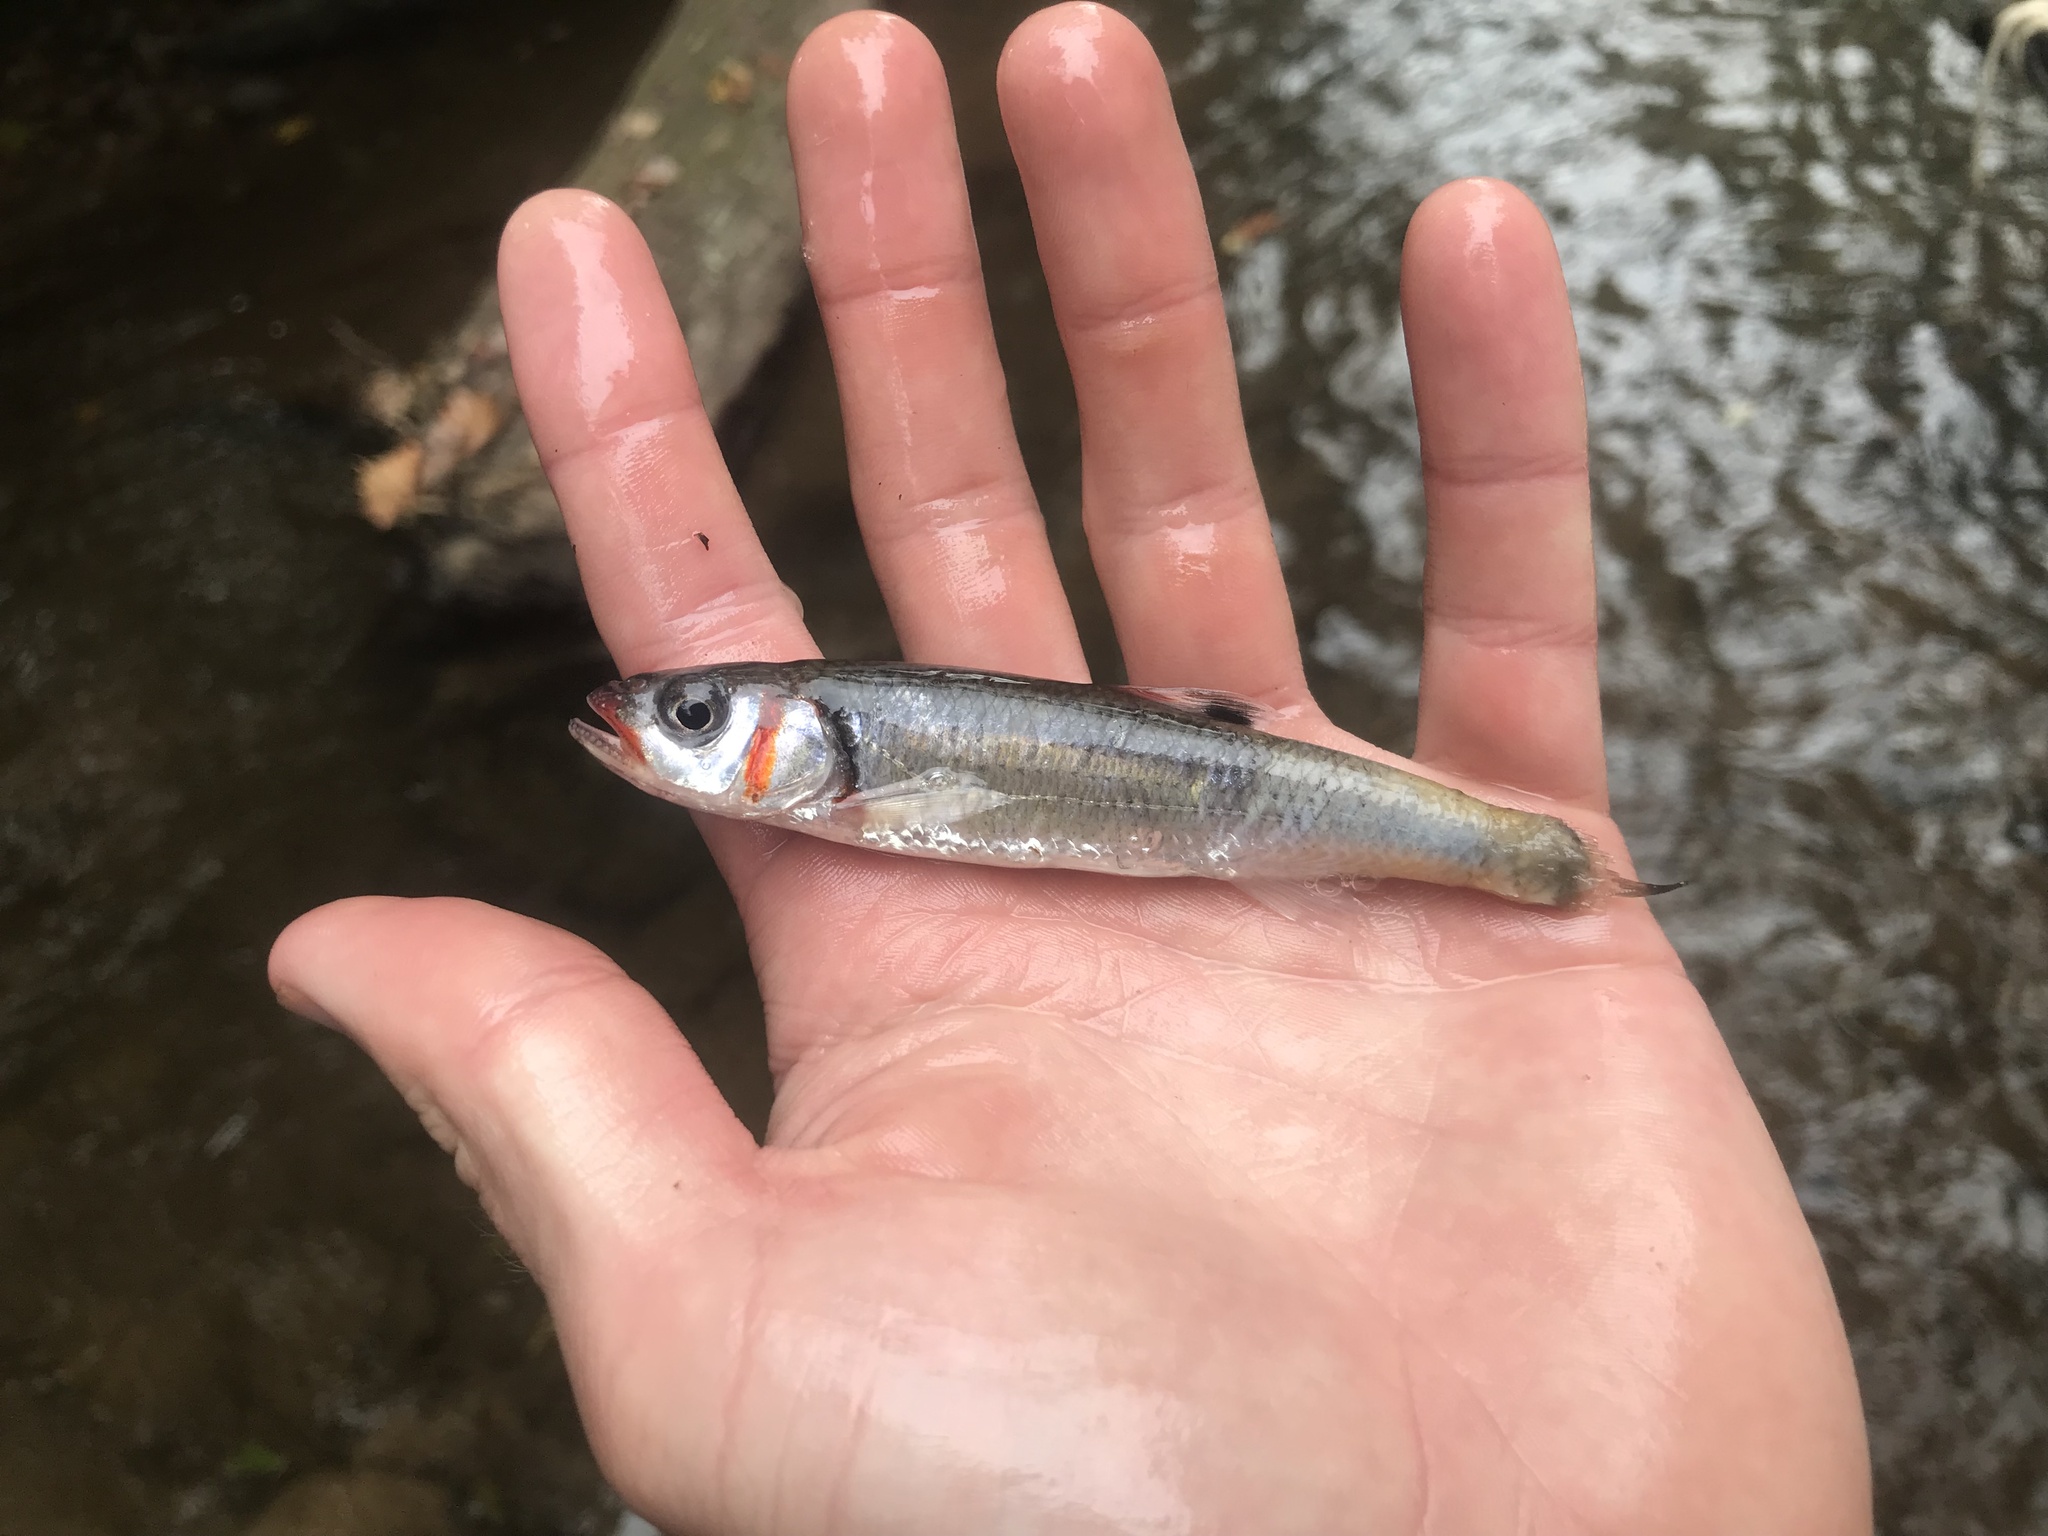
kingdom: Animalia
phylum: Chordata
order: Cypriniformes
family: Cyprinidae
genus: Luxilus
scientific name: Luxilus
